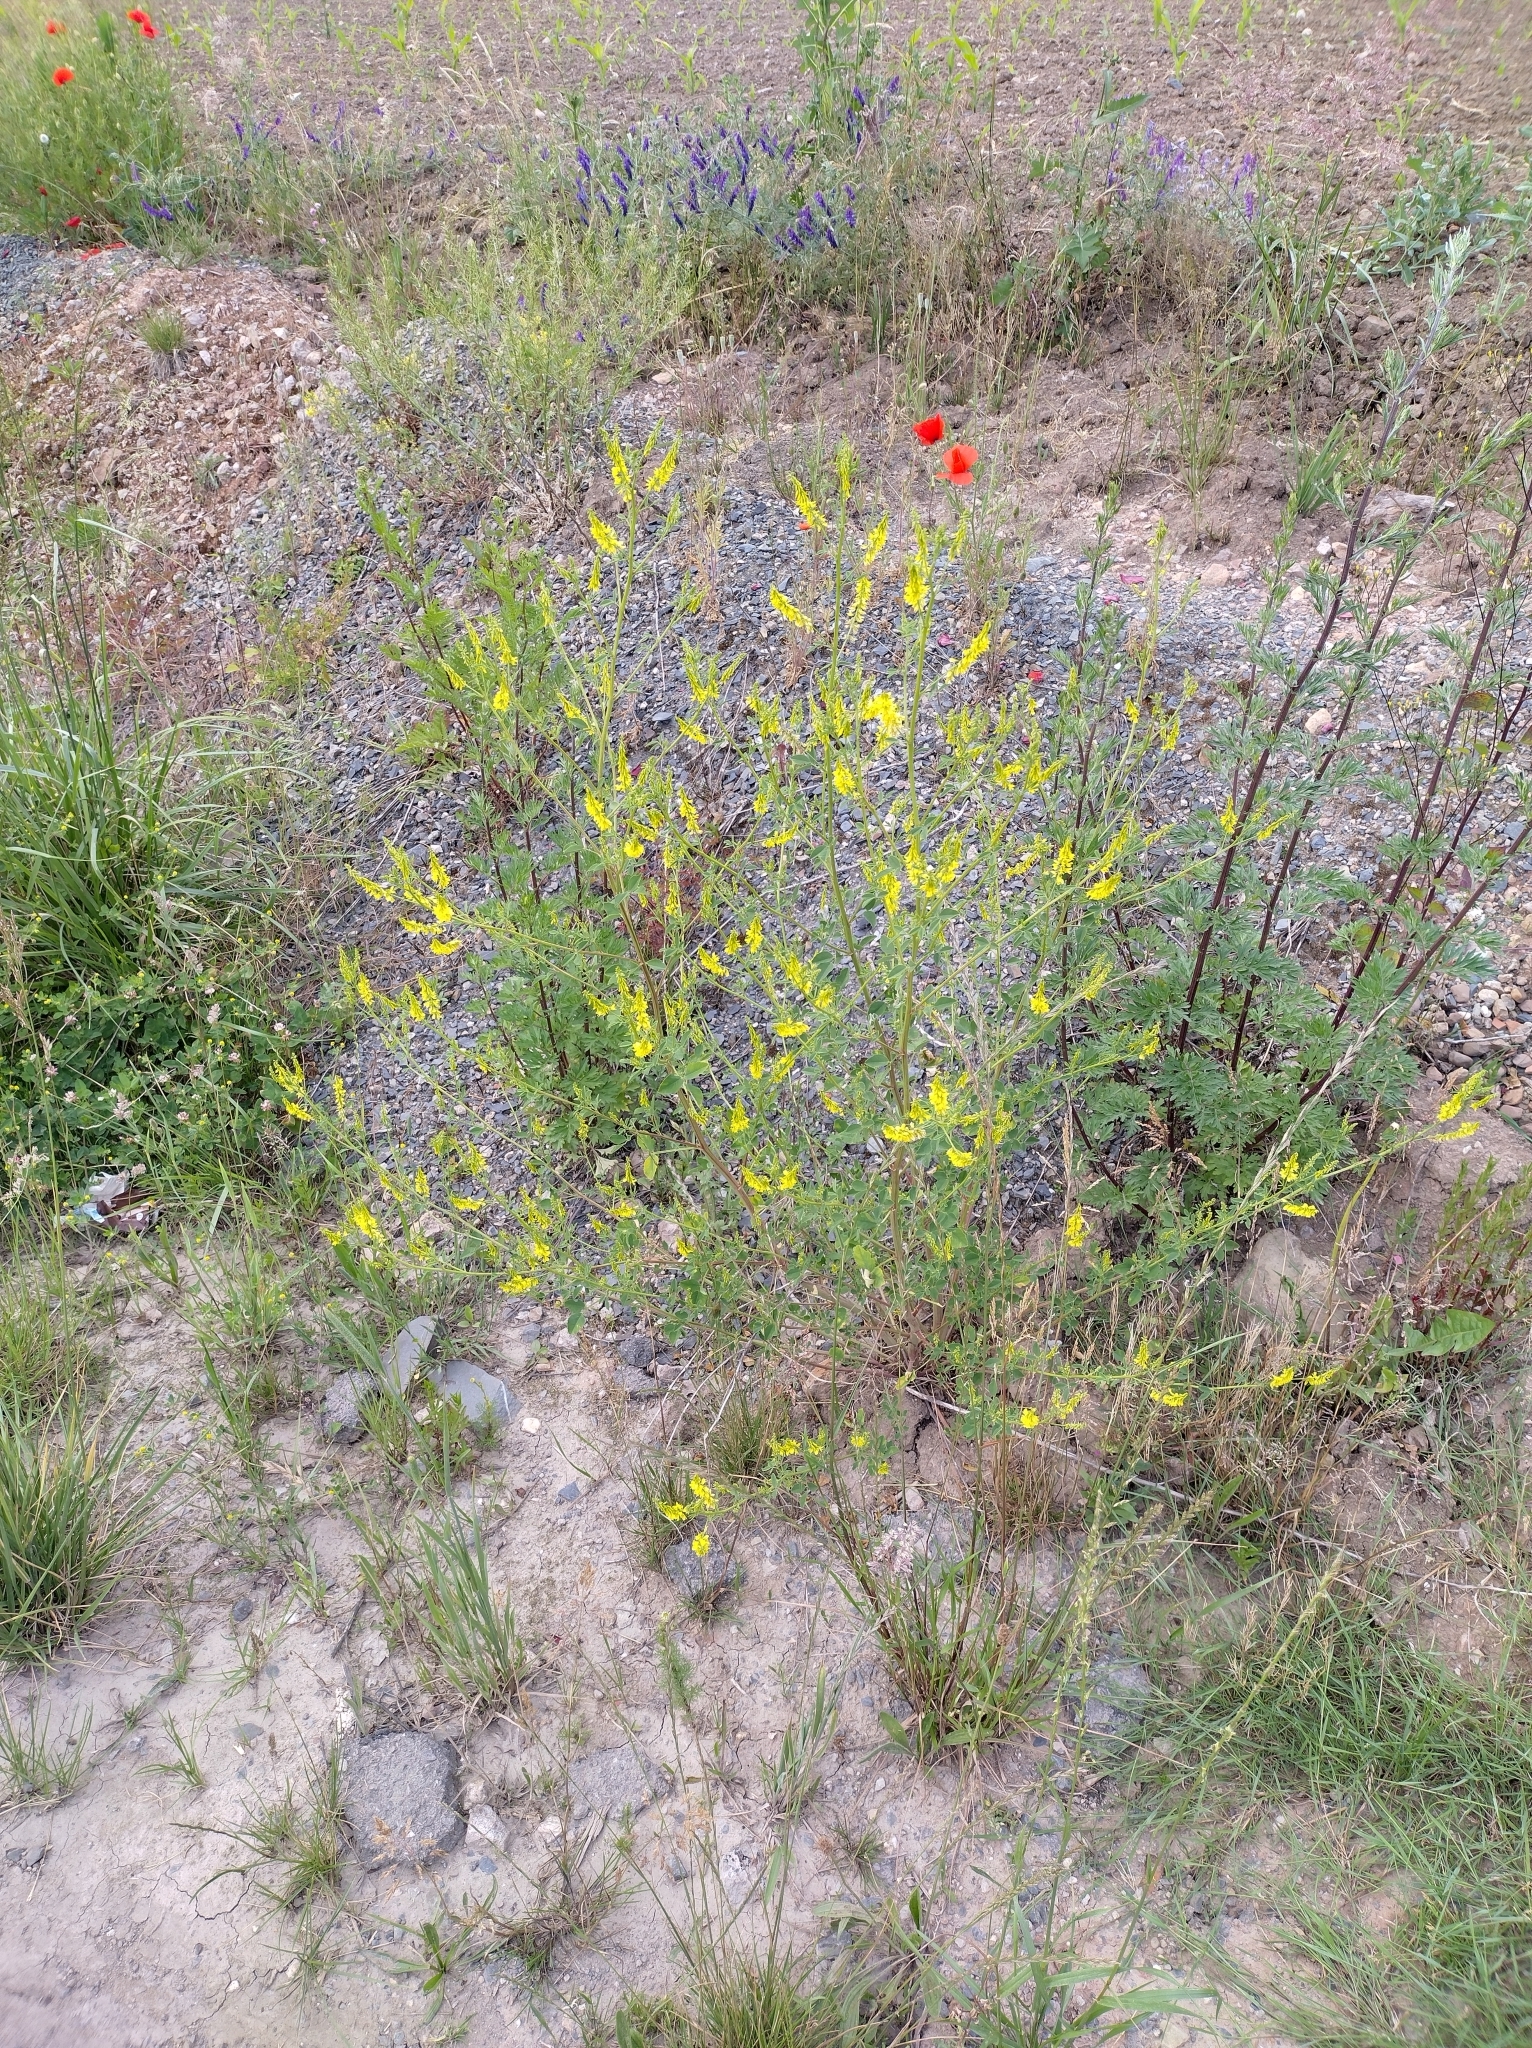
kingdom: Plantae
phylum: Tracheophyta
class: Magnoliopsida
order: Fabales
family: Fabaceae
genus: Melilotus
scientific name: Melilotus officinalis
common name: Sweetclover
